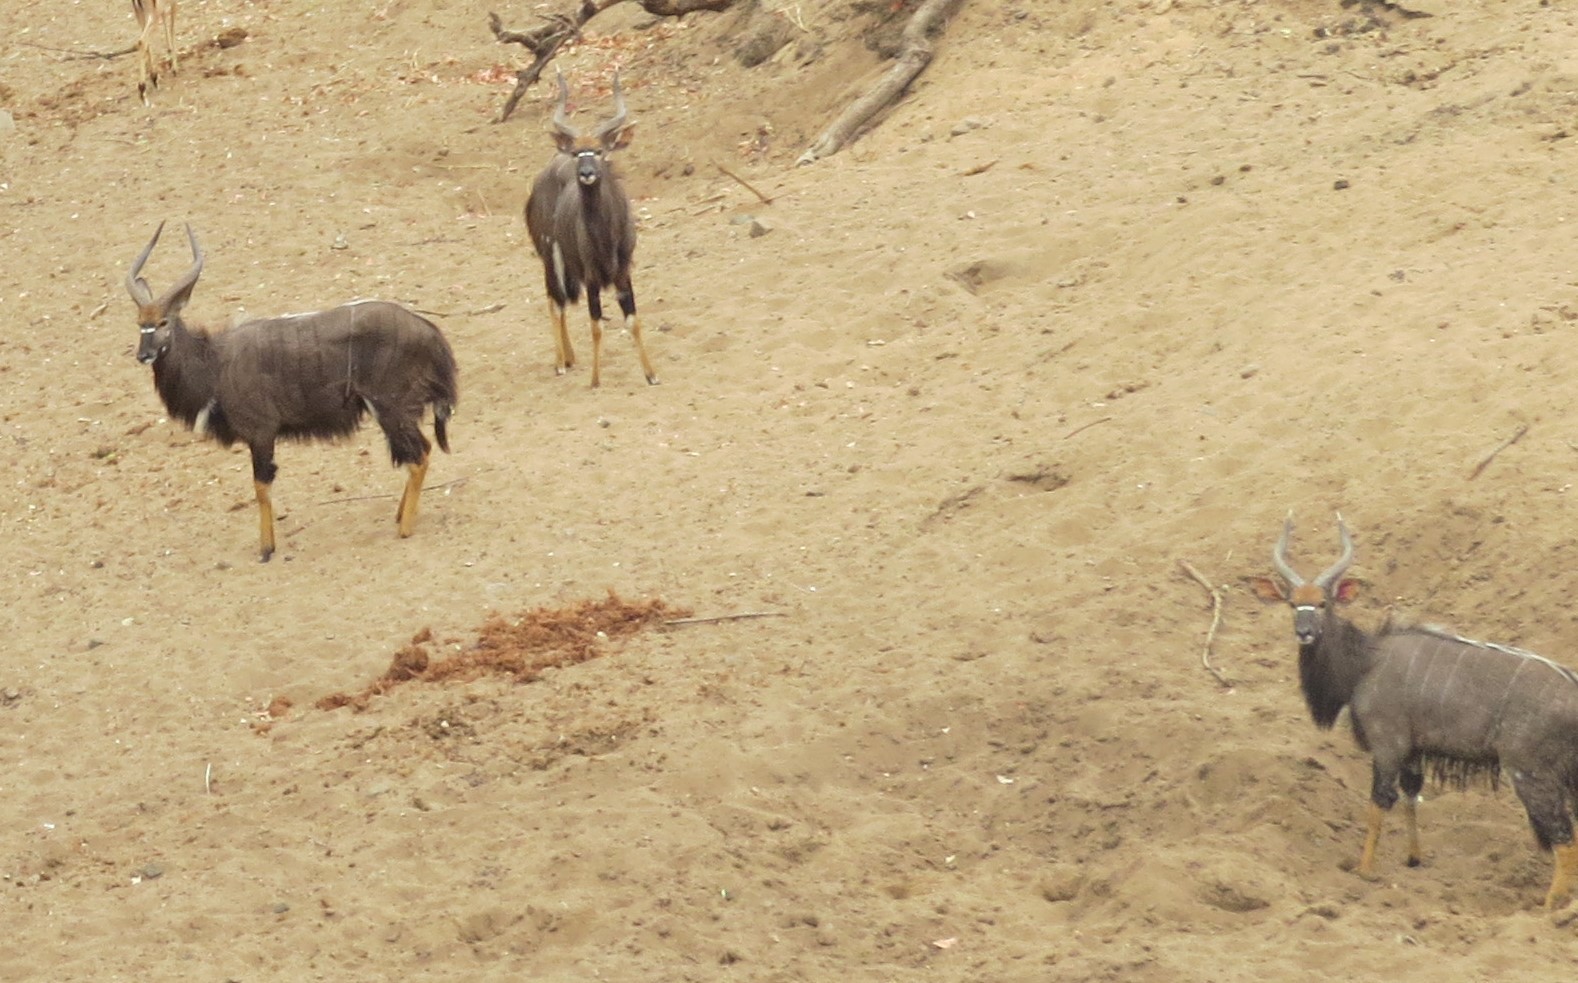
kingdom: Animalia
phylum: Chordata
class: Mammalia
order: Artiodactyla
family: Bovidae
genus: Tragelaphus
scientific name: Tragelaphus angasii
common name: Nyala
